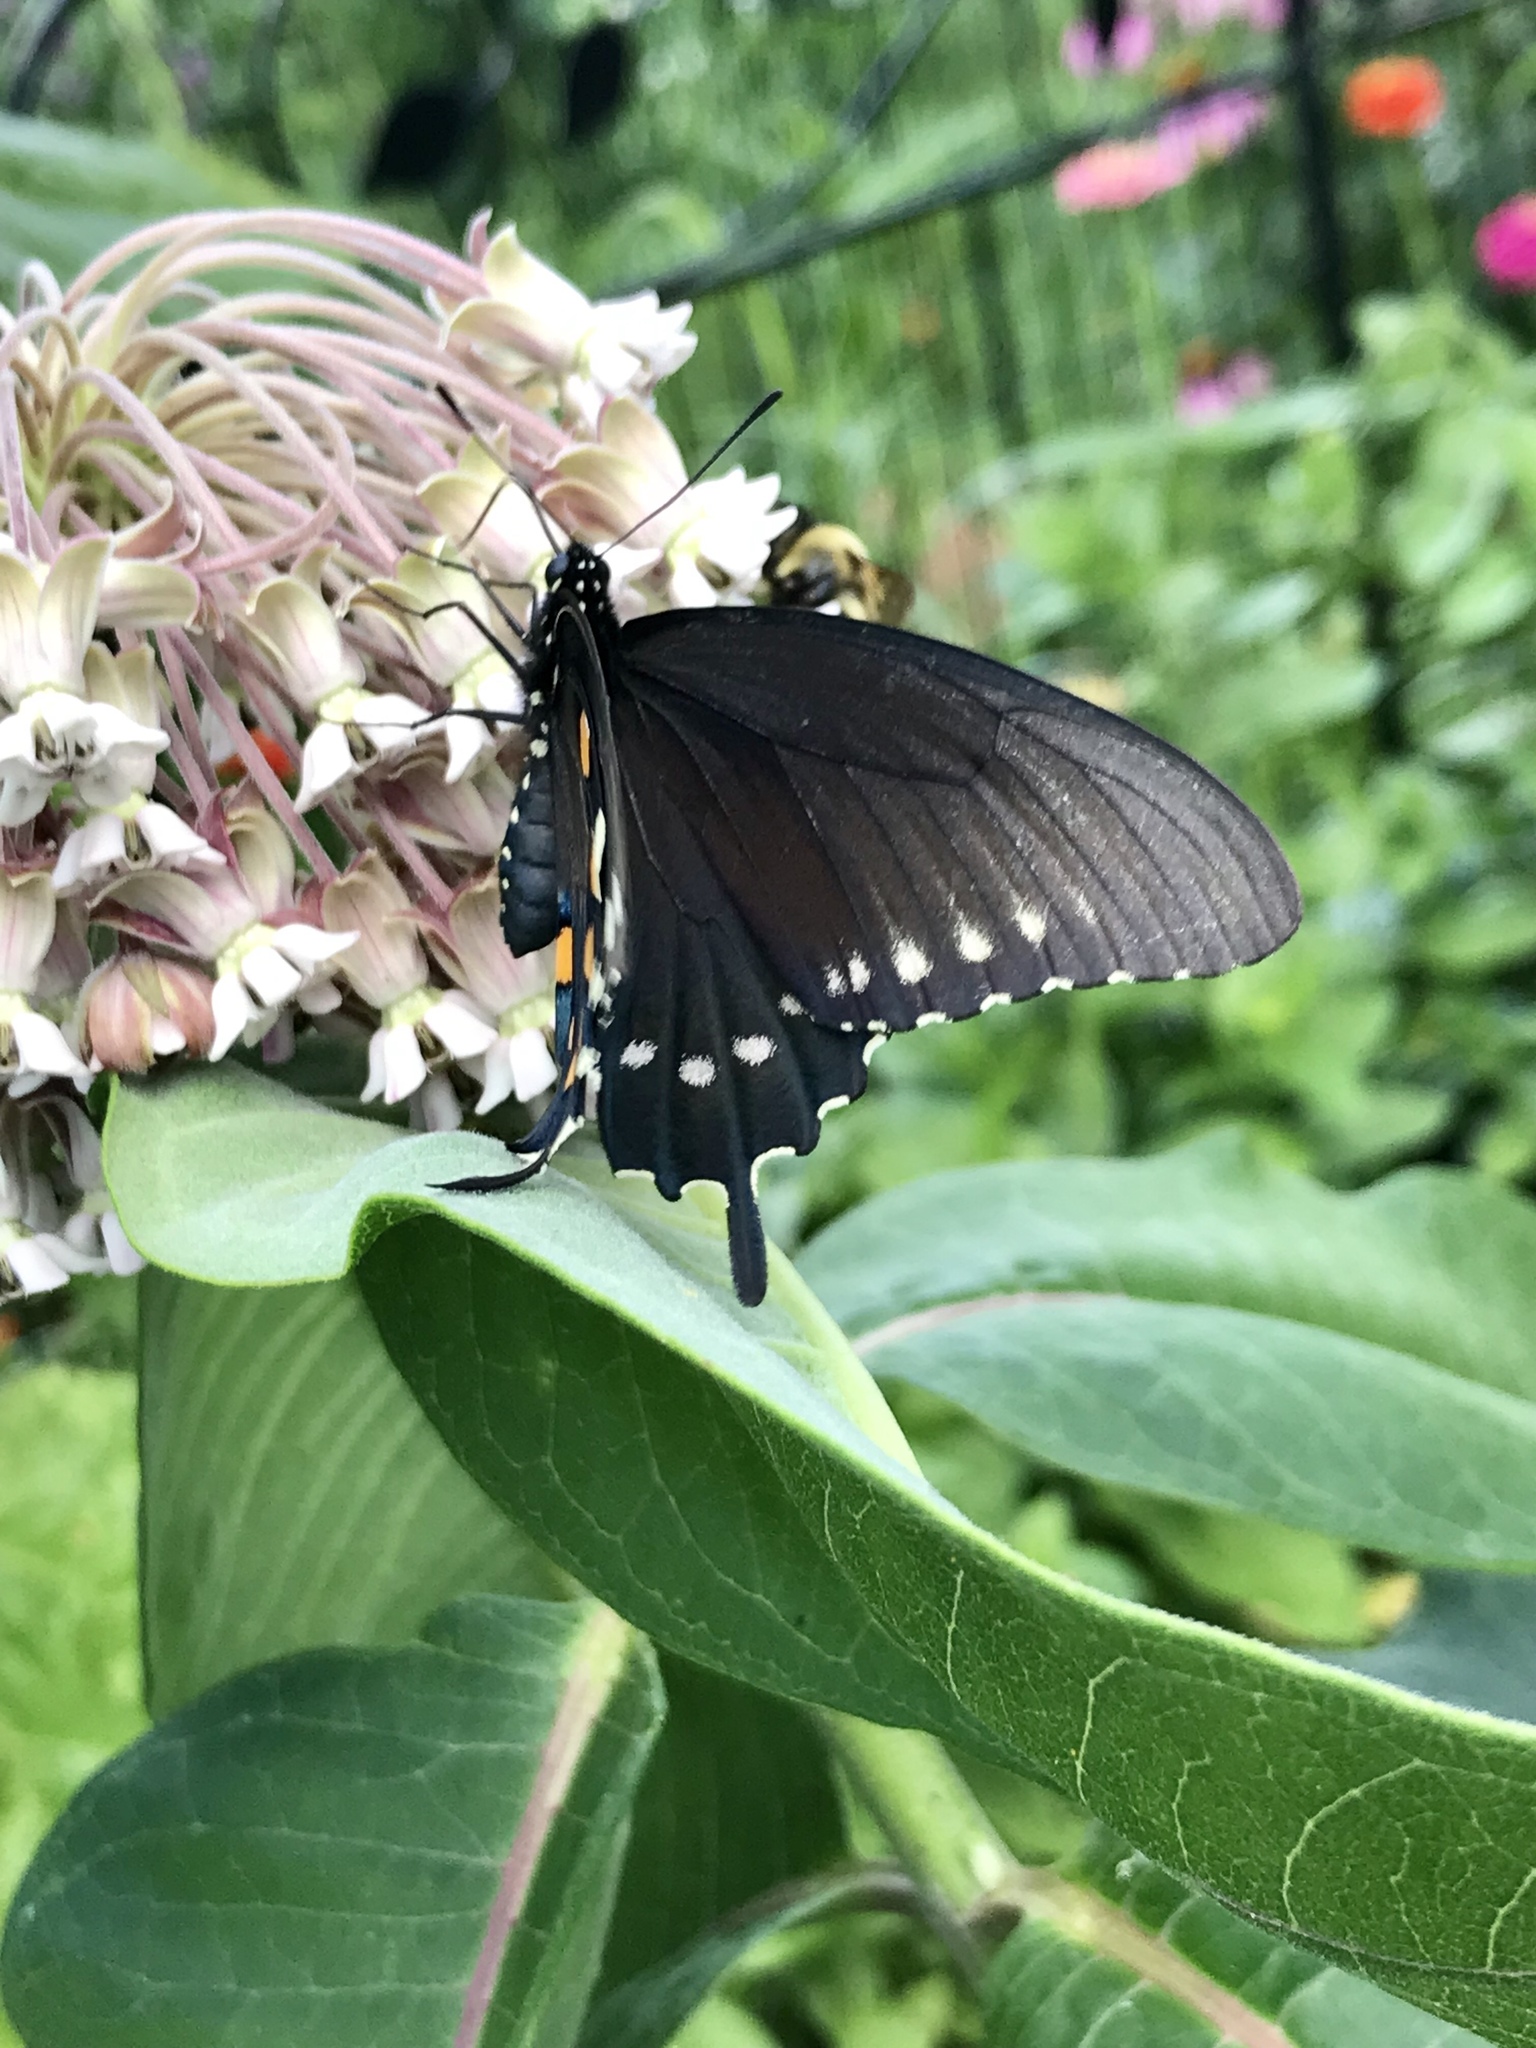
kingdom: Animalia
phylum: Arthropoda
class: Insecta
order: Lepidoptera
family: Papilionidae
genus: Battus
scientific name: Battus philenor
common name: Pipevine swallowtail
